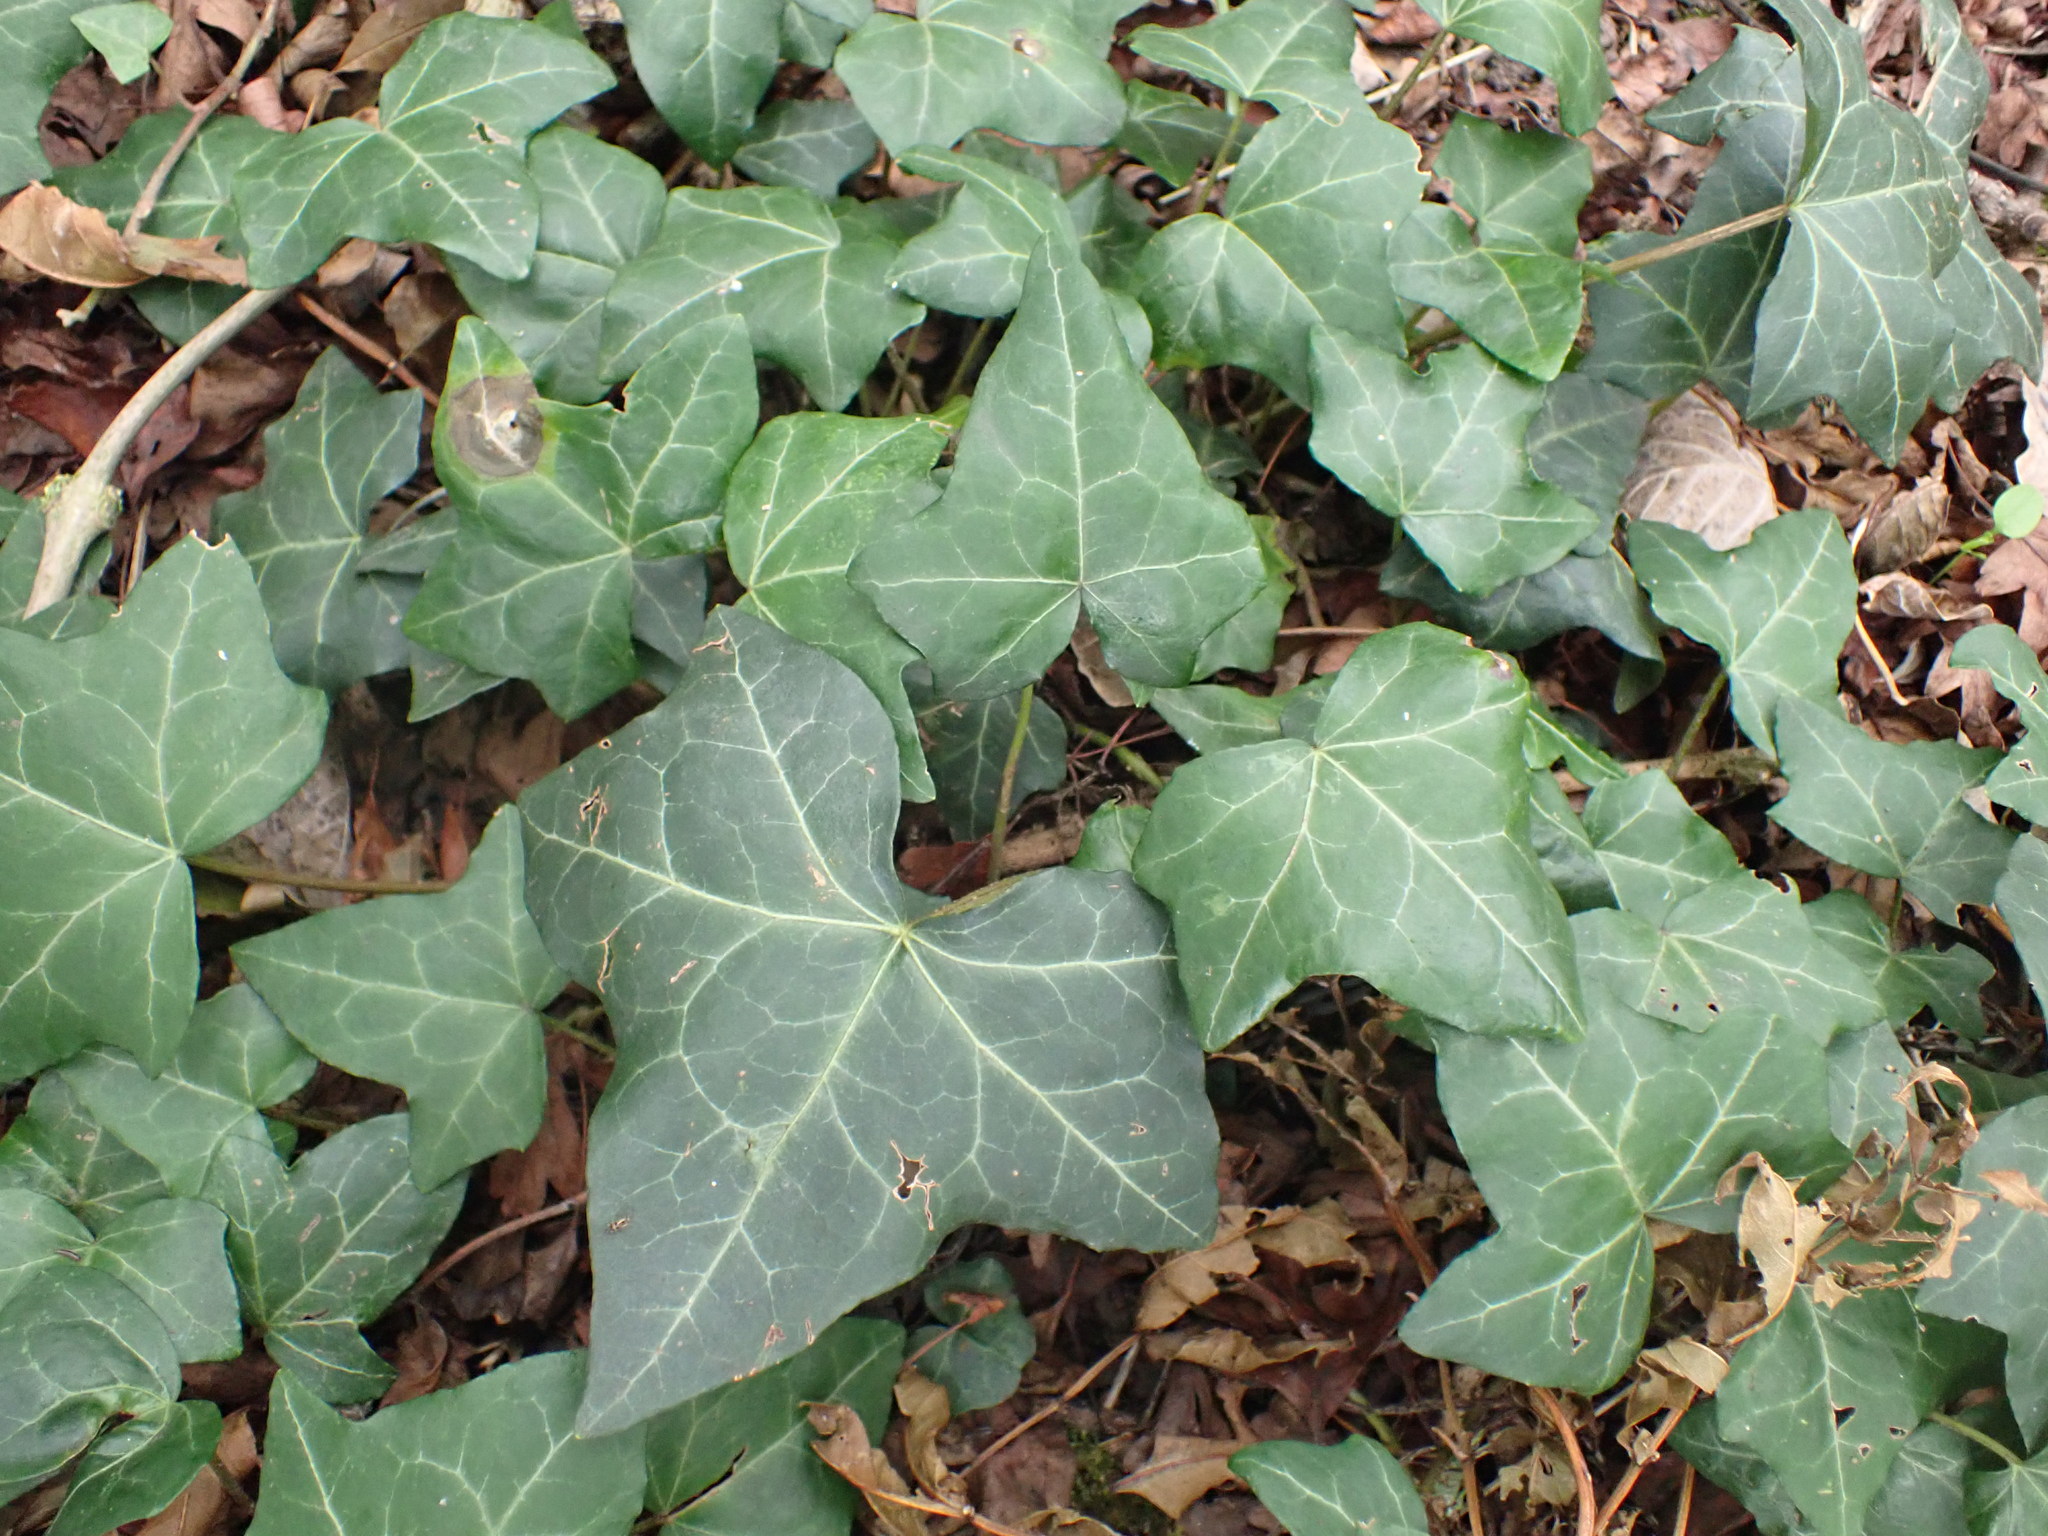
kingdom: Plantae
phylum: Tracheophyta
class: Magnoliopsida
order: Apiales
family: Araliaceae
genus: Hedera
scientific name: Hedera helix
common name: Ivy
